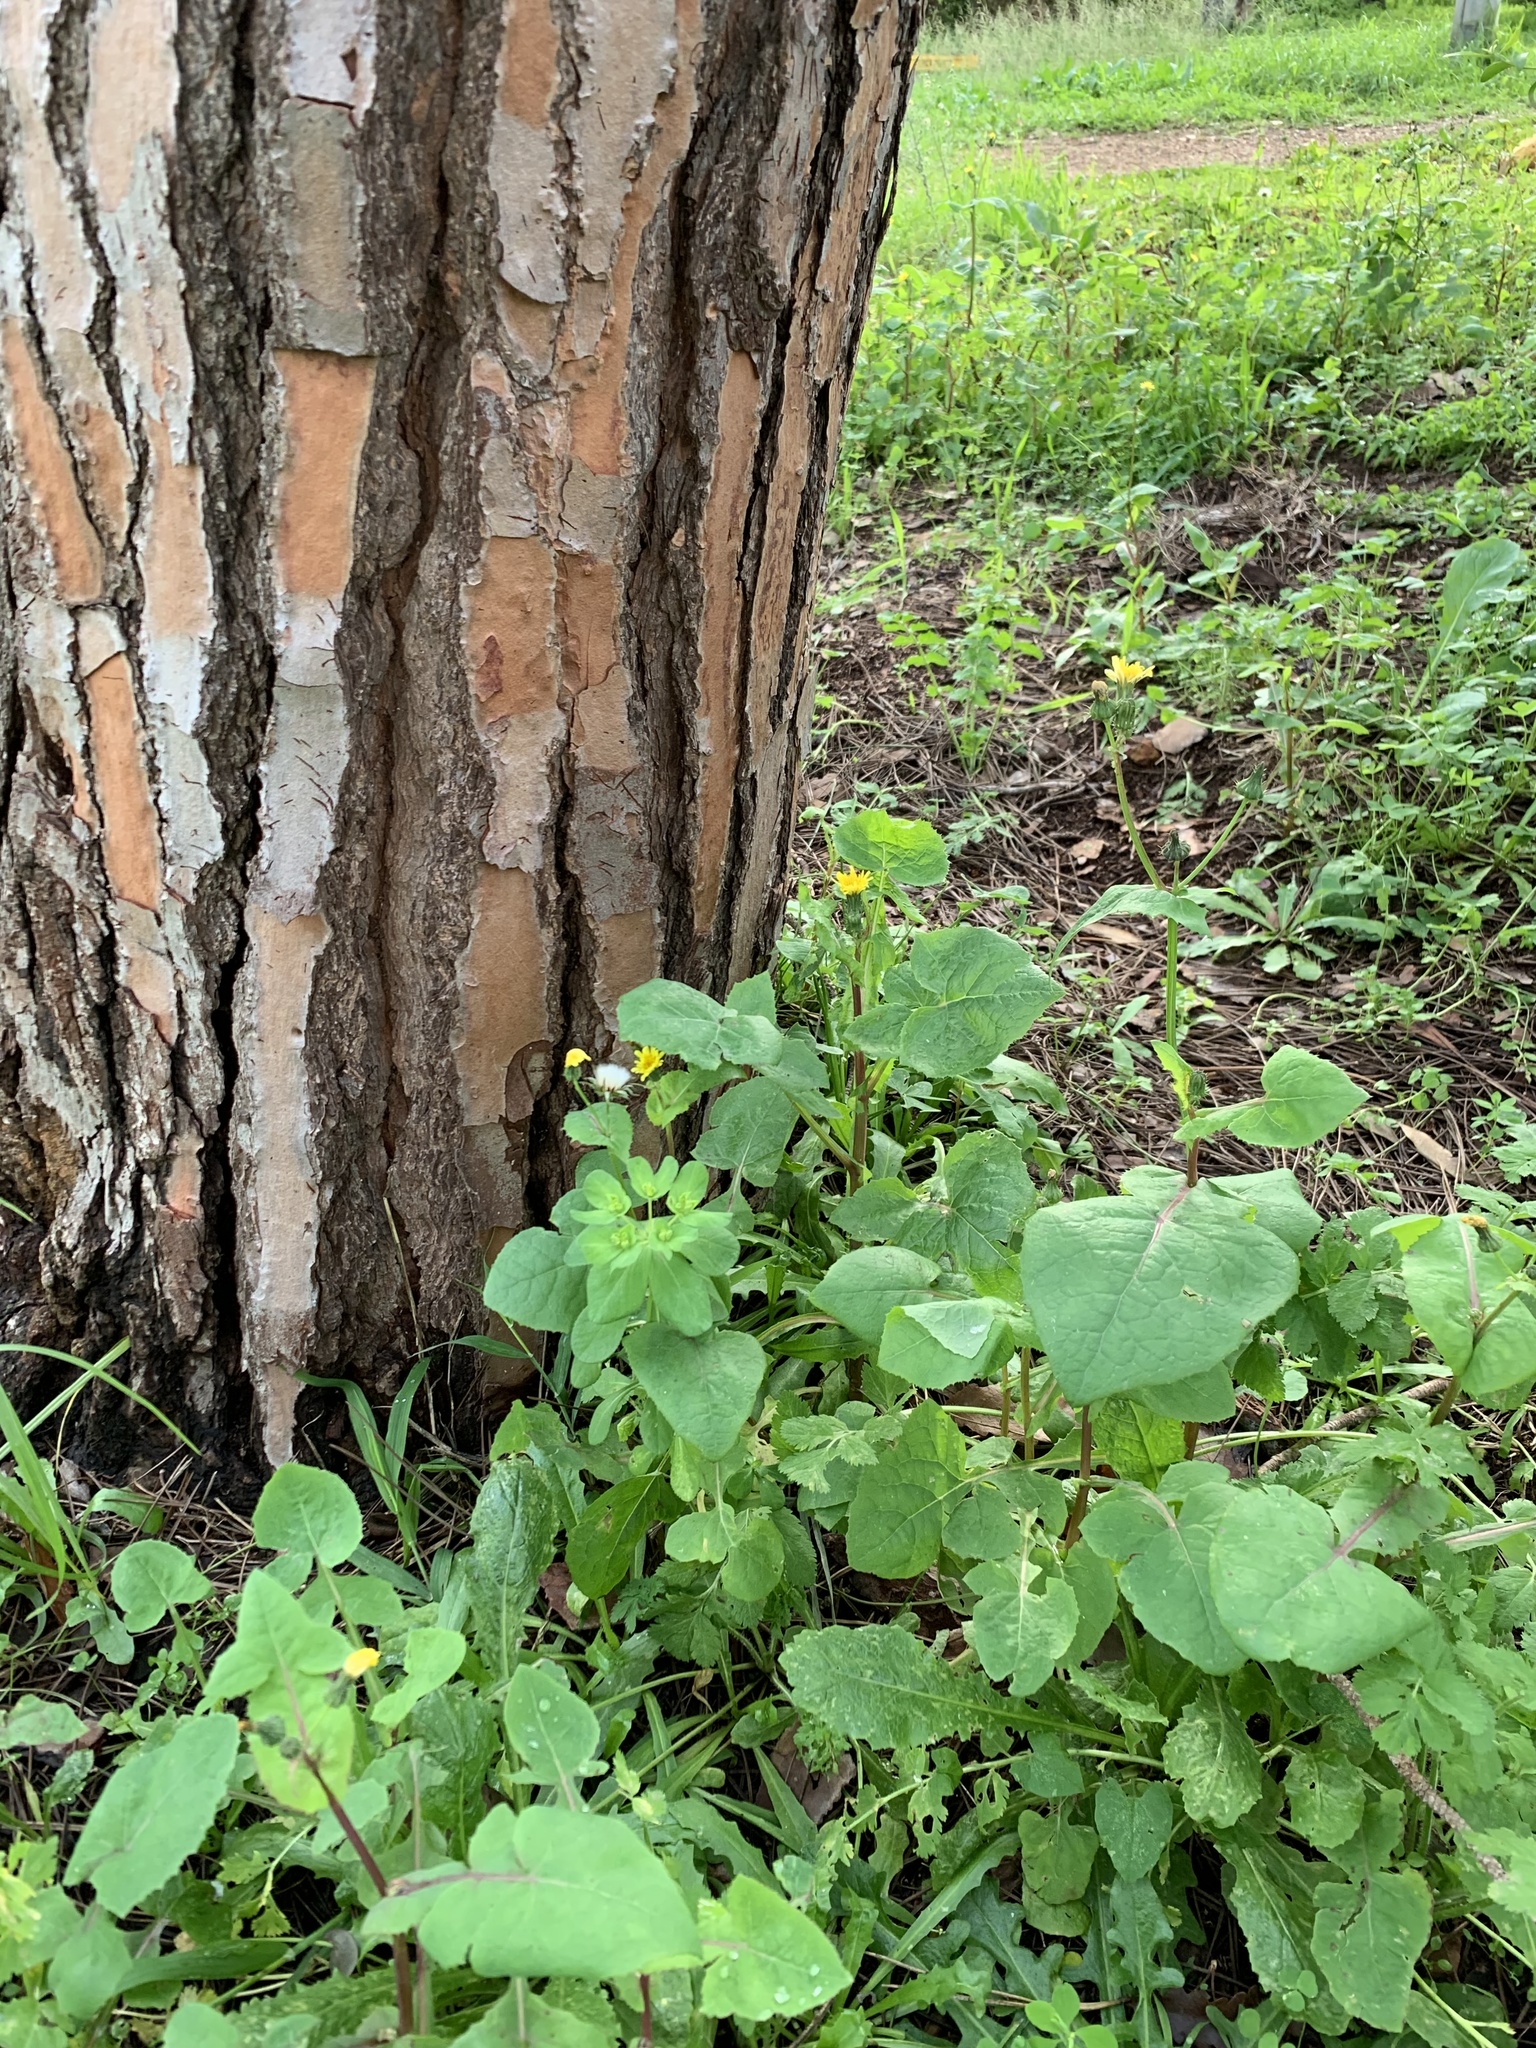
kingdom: Plantae
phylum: Tracheophyta
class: Magnoliopsida
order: Asterales
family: Asteraceae
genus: Sonchus
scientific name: Sonchus oleraceus
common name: Common sowthistle
